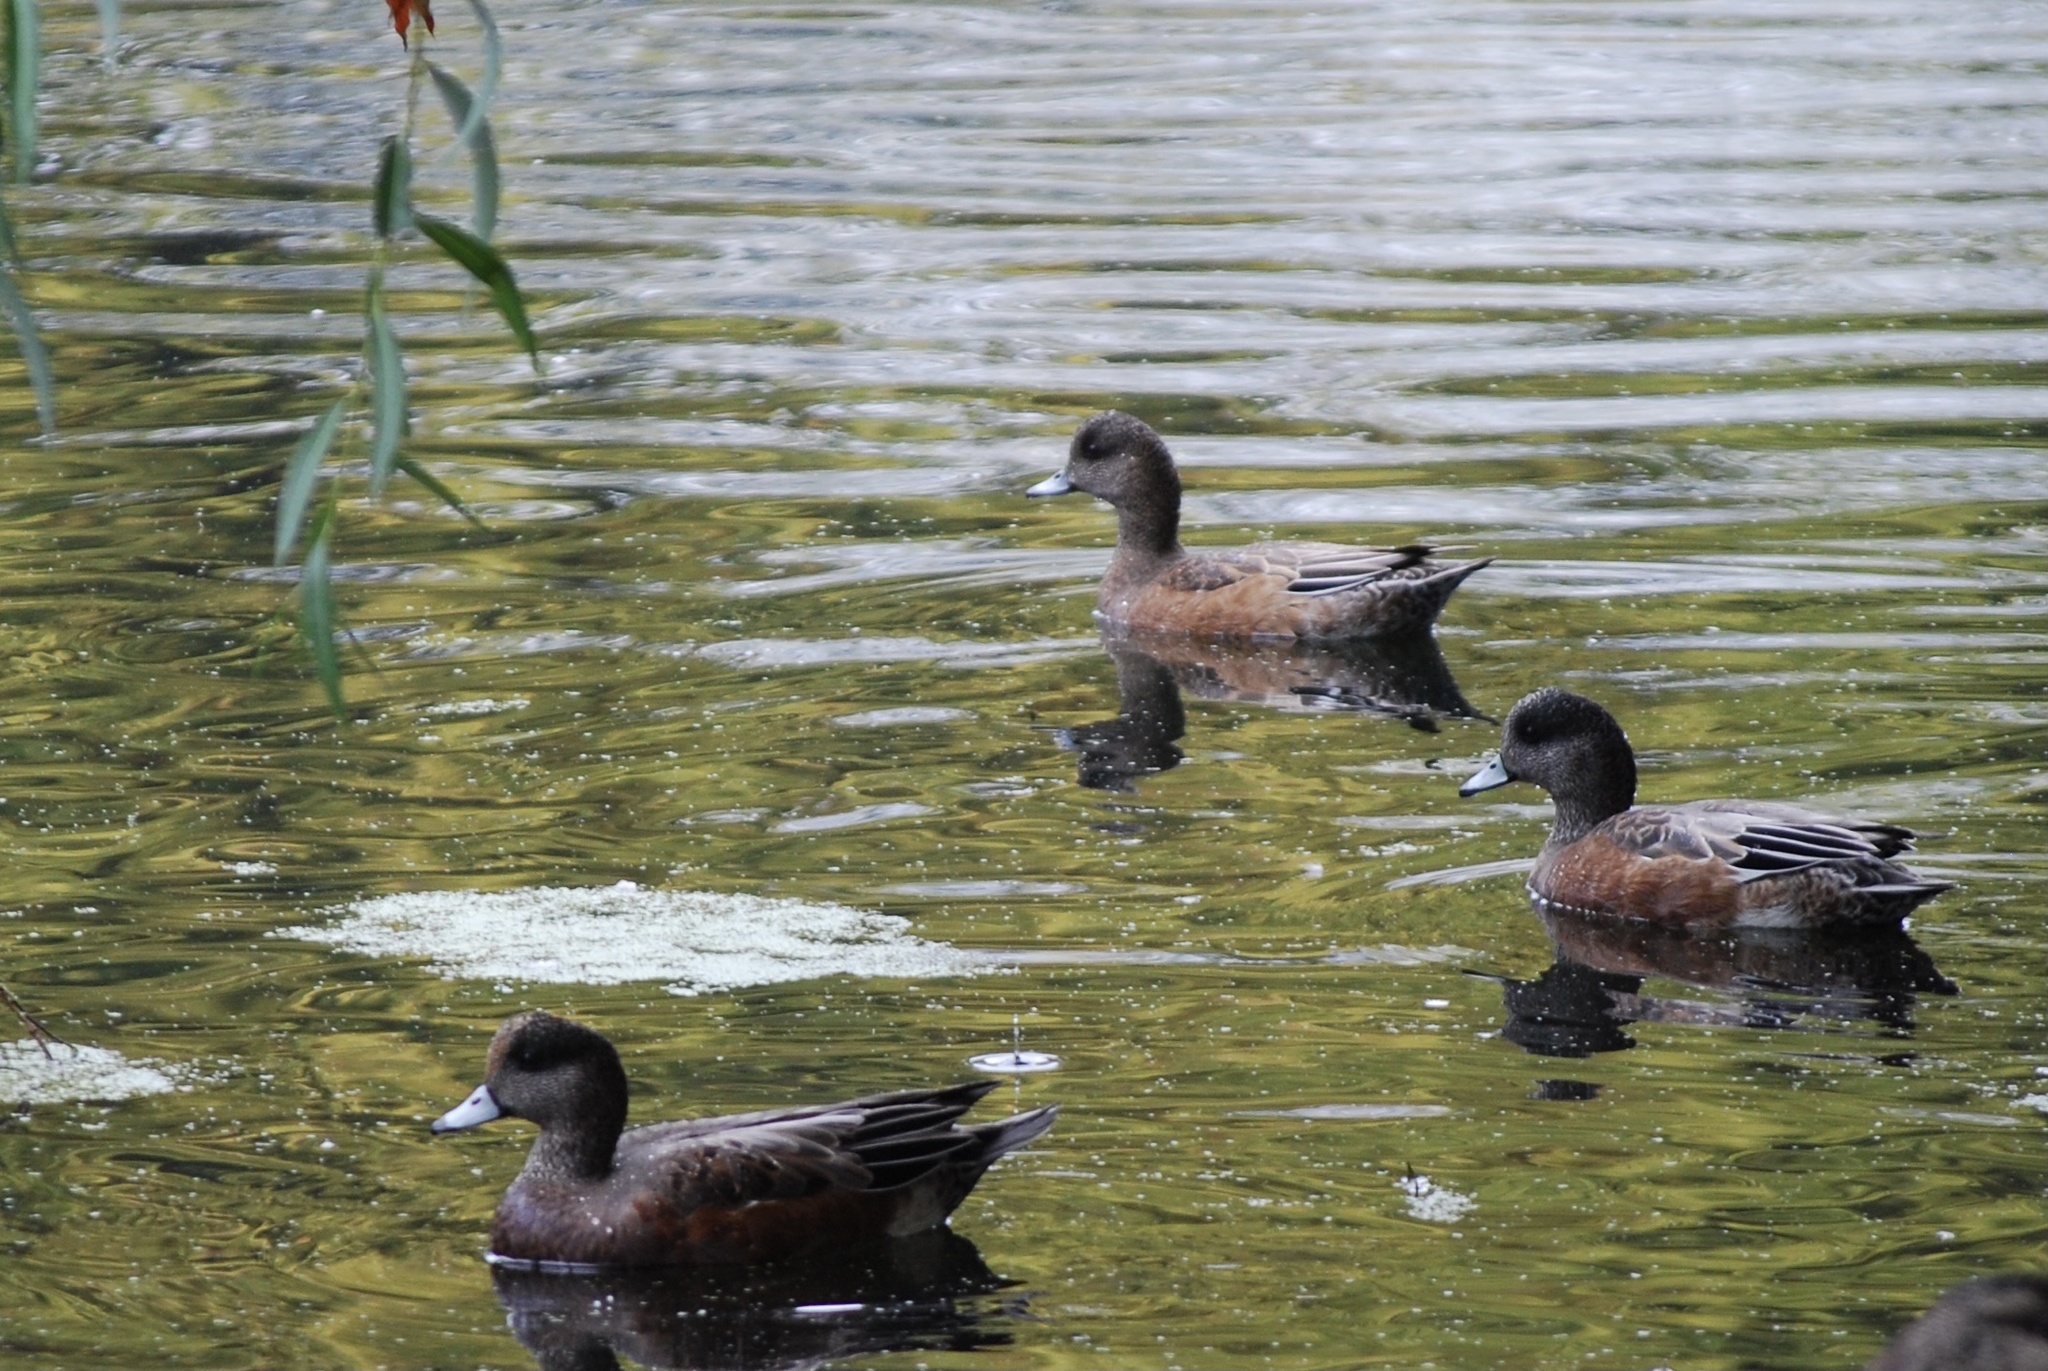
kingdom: Animalia
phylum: Chordata
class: Aves
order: Anseriformes
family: Anatidae
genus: Mareca
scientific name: Mareca americana
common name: American wigeon
